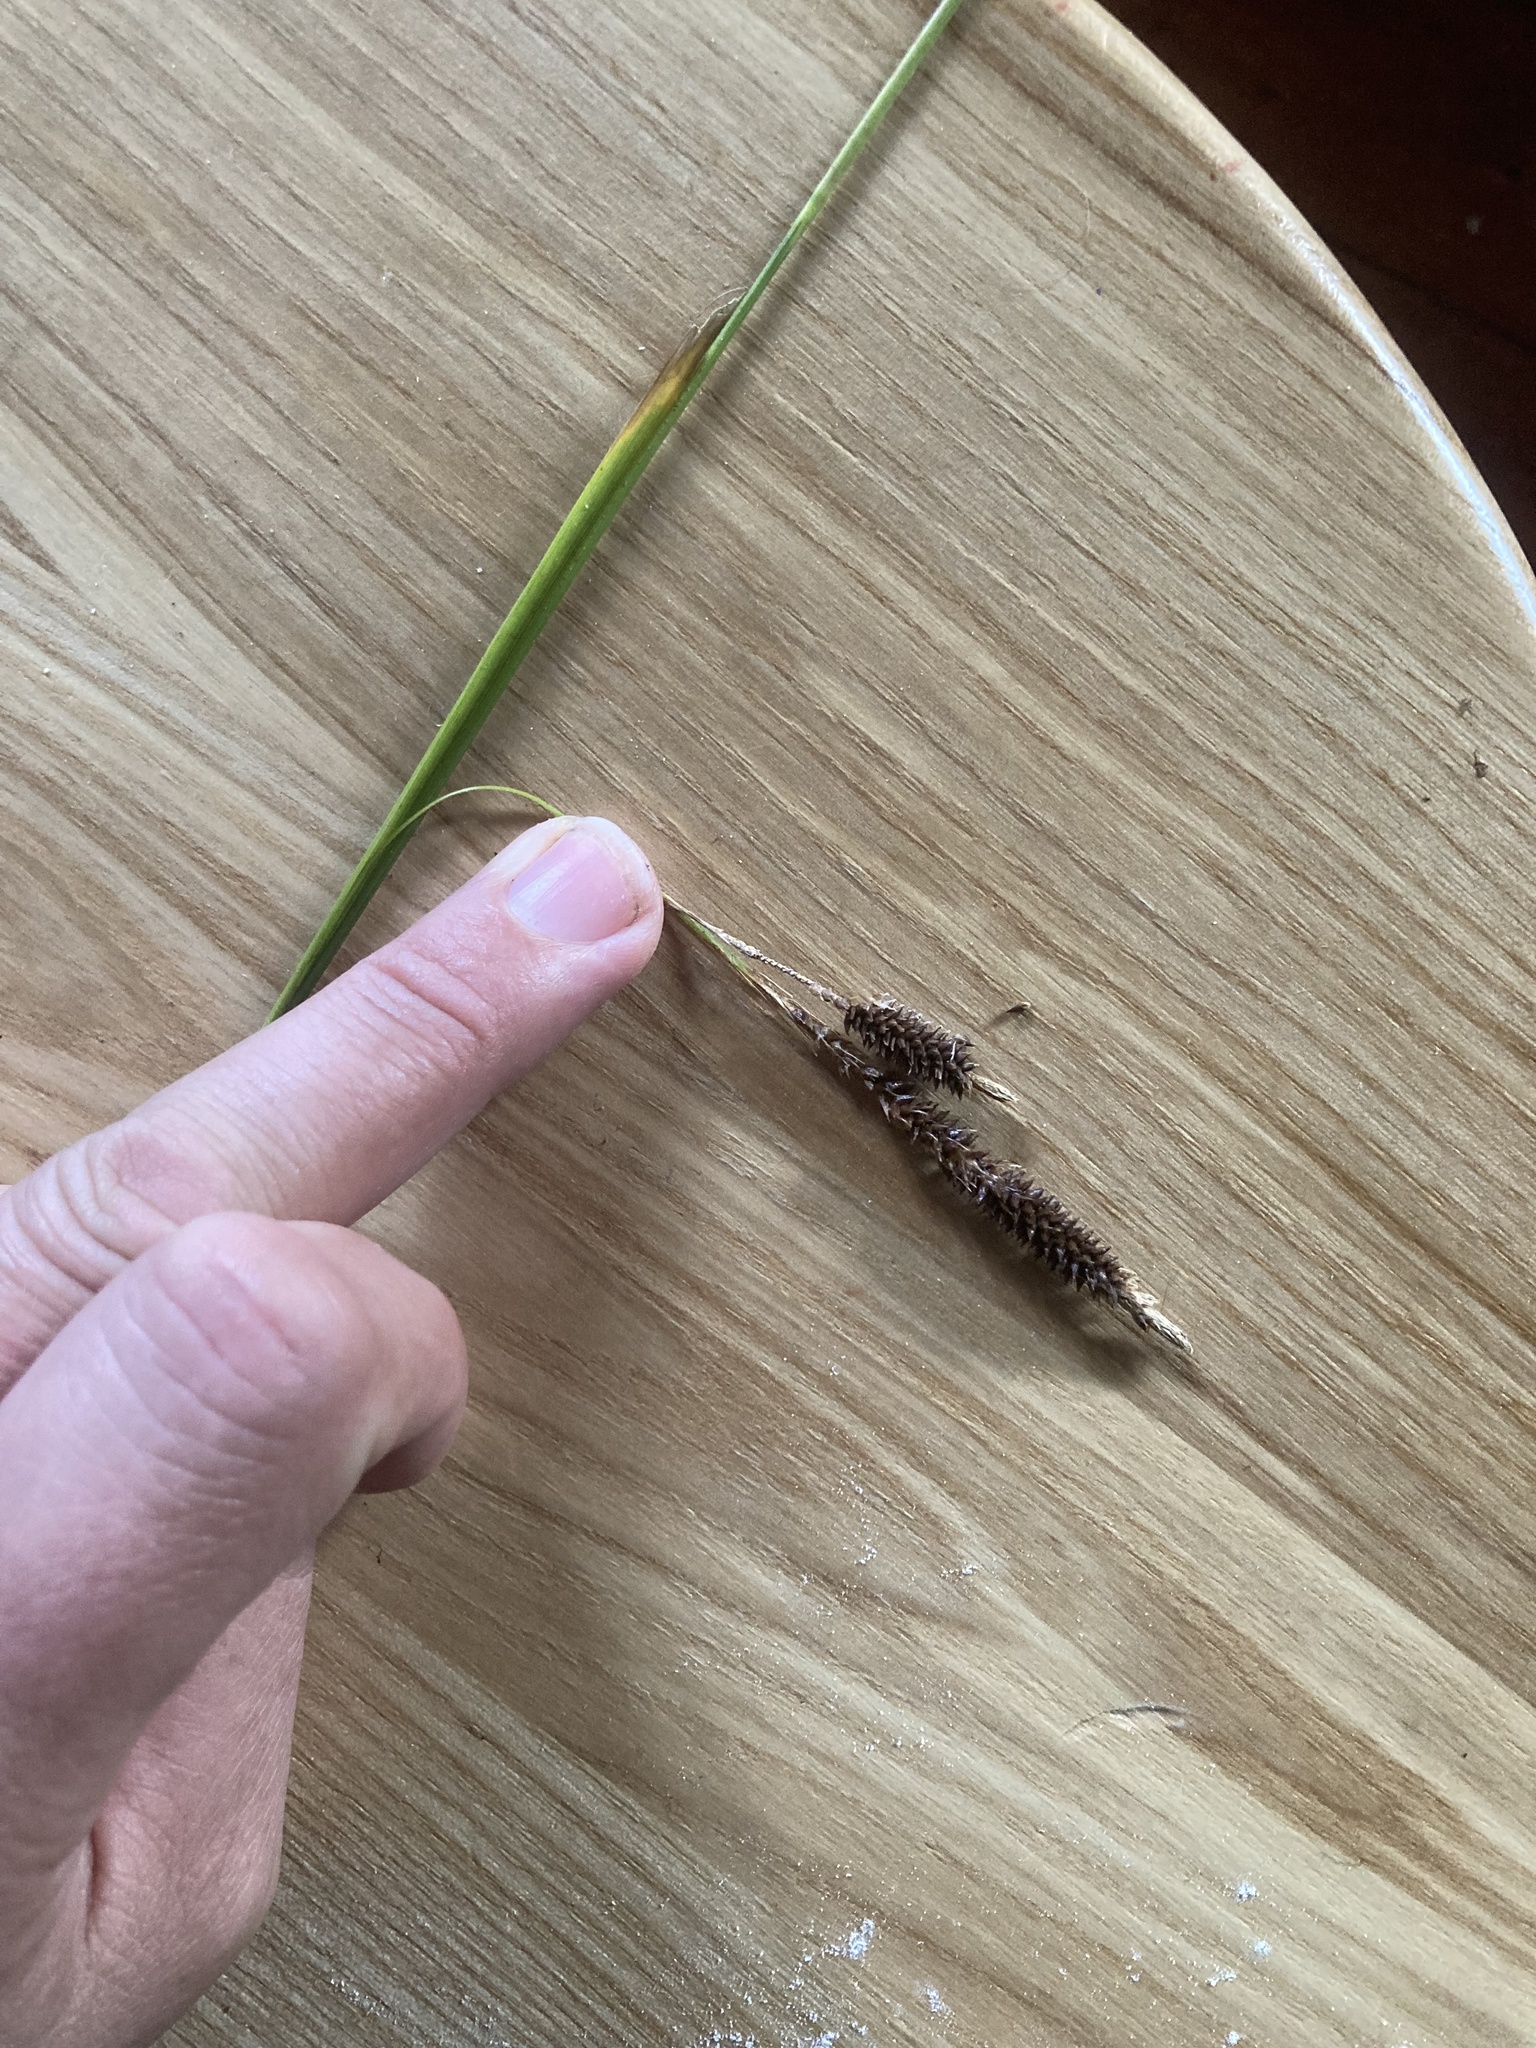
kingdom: Plantae
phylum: Tracheophyta
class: Liliopsida
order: Poales
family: Cyperaceae
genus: Carex
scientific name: Carex solandri
